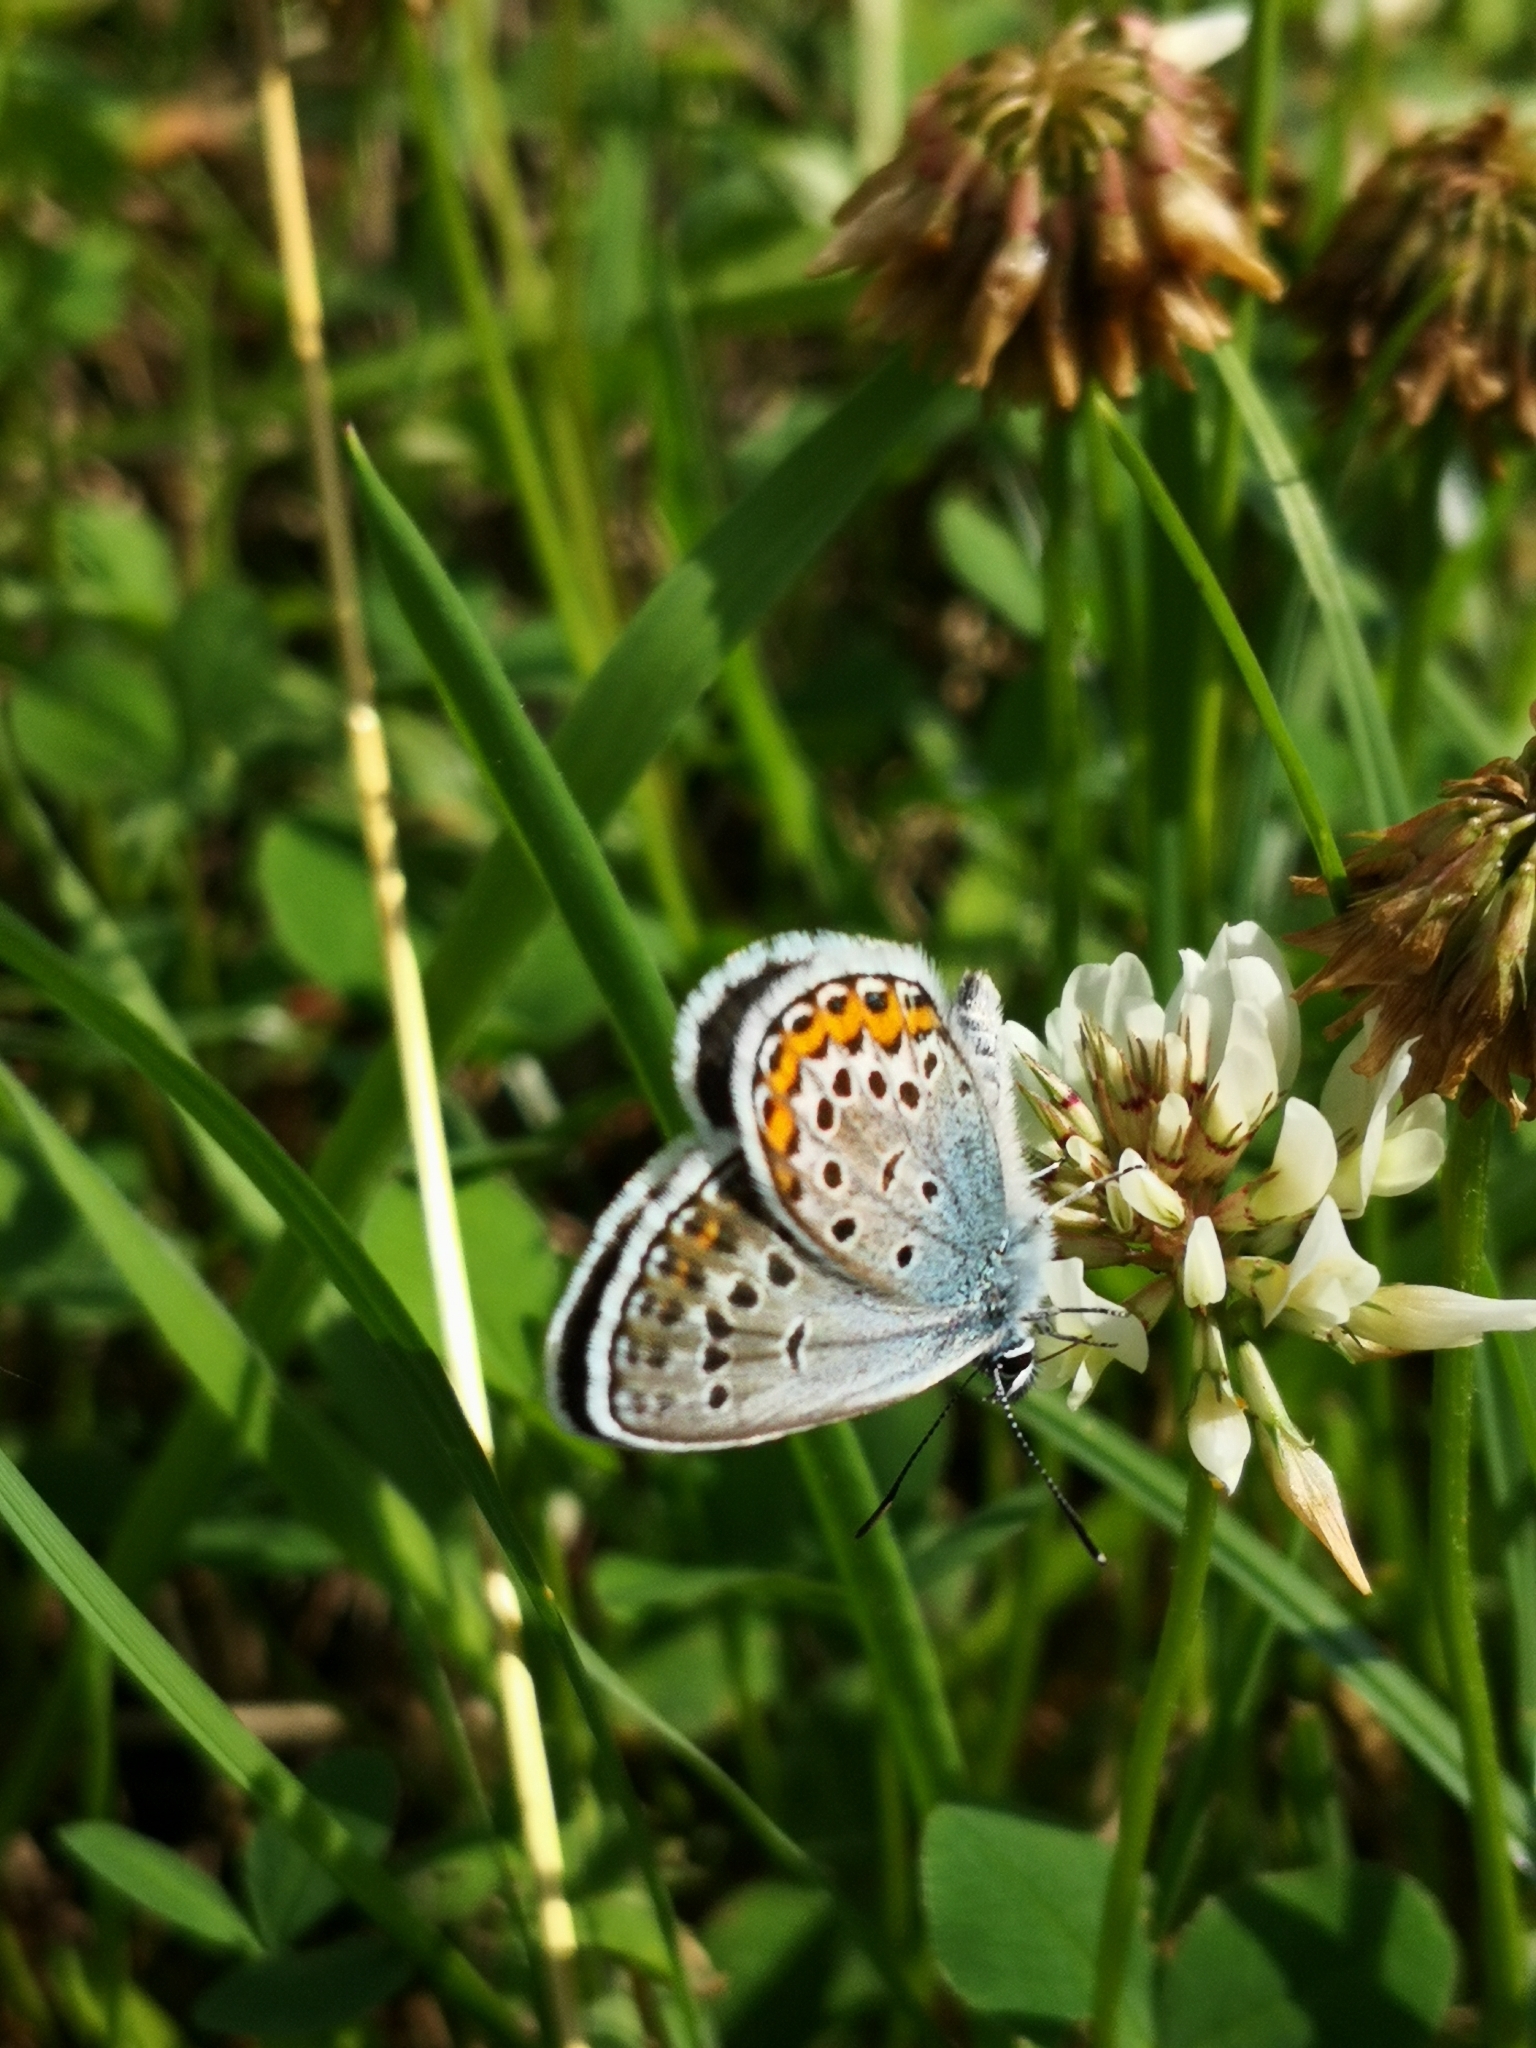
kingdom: Animalia
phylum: Arthropoda
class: Insecta
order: Lepidoptera
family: Lycaenidae
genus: Plebejus
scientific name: Plebejus argus
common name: Silver-studded blue
